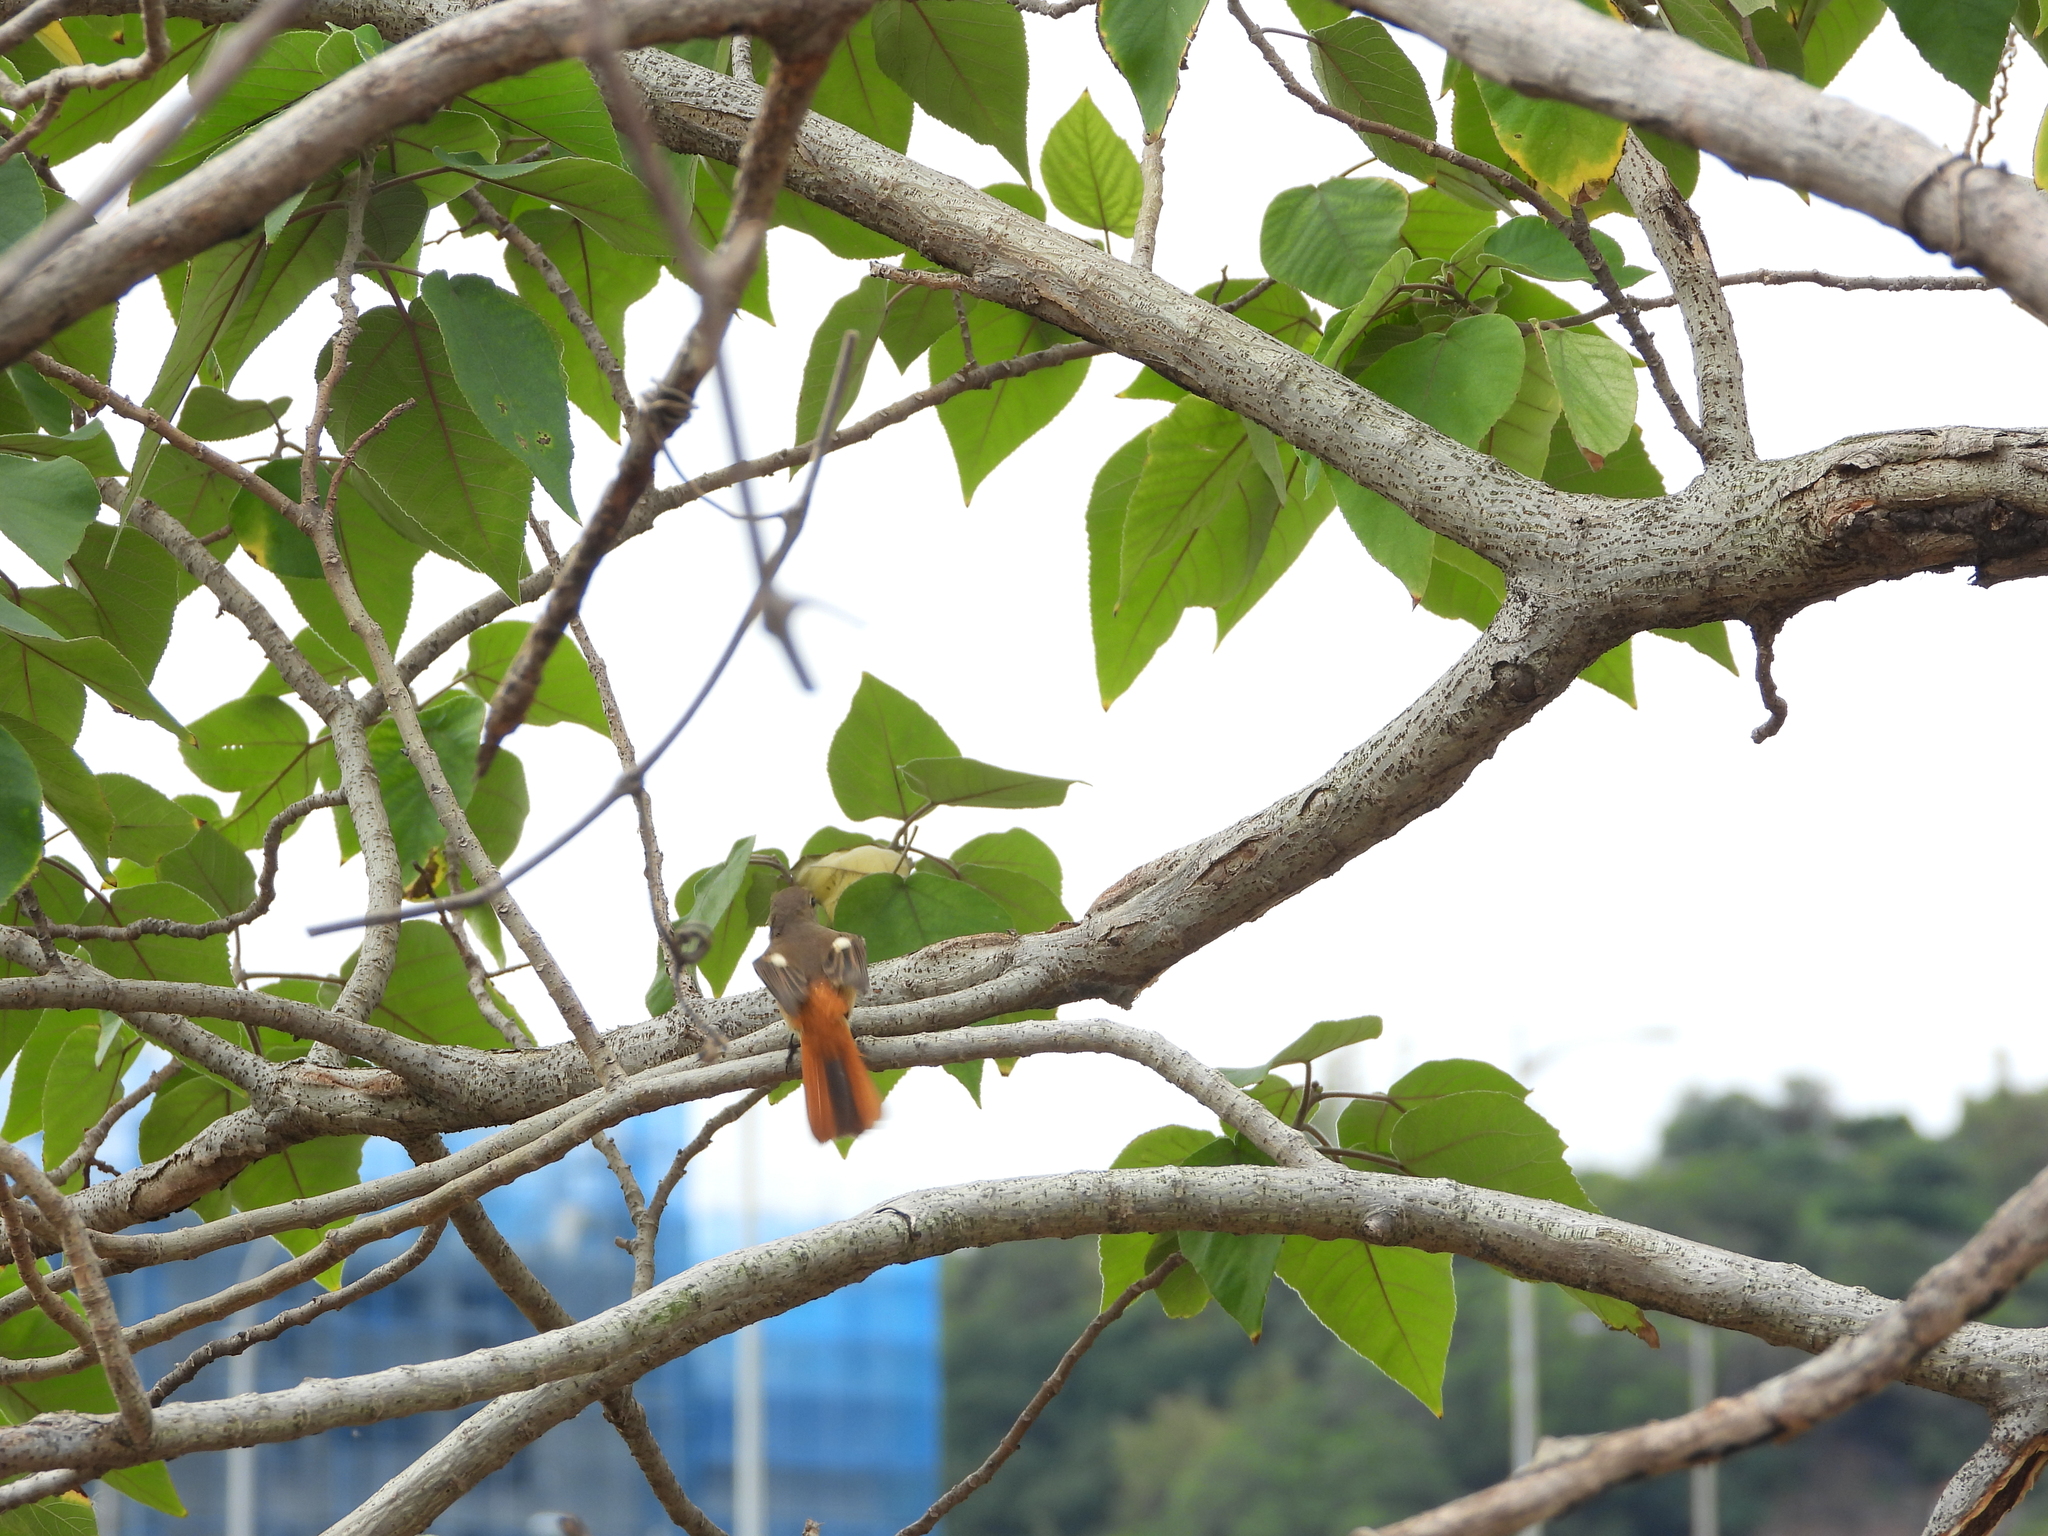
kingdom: Animalia
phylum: Chordata
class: Aves
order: Passeriformes
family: Muscicapidae
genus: Phoenicurus
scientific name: Phoenicurus auroreus
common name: Daurian redstart
